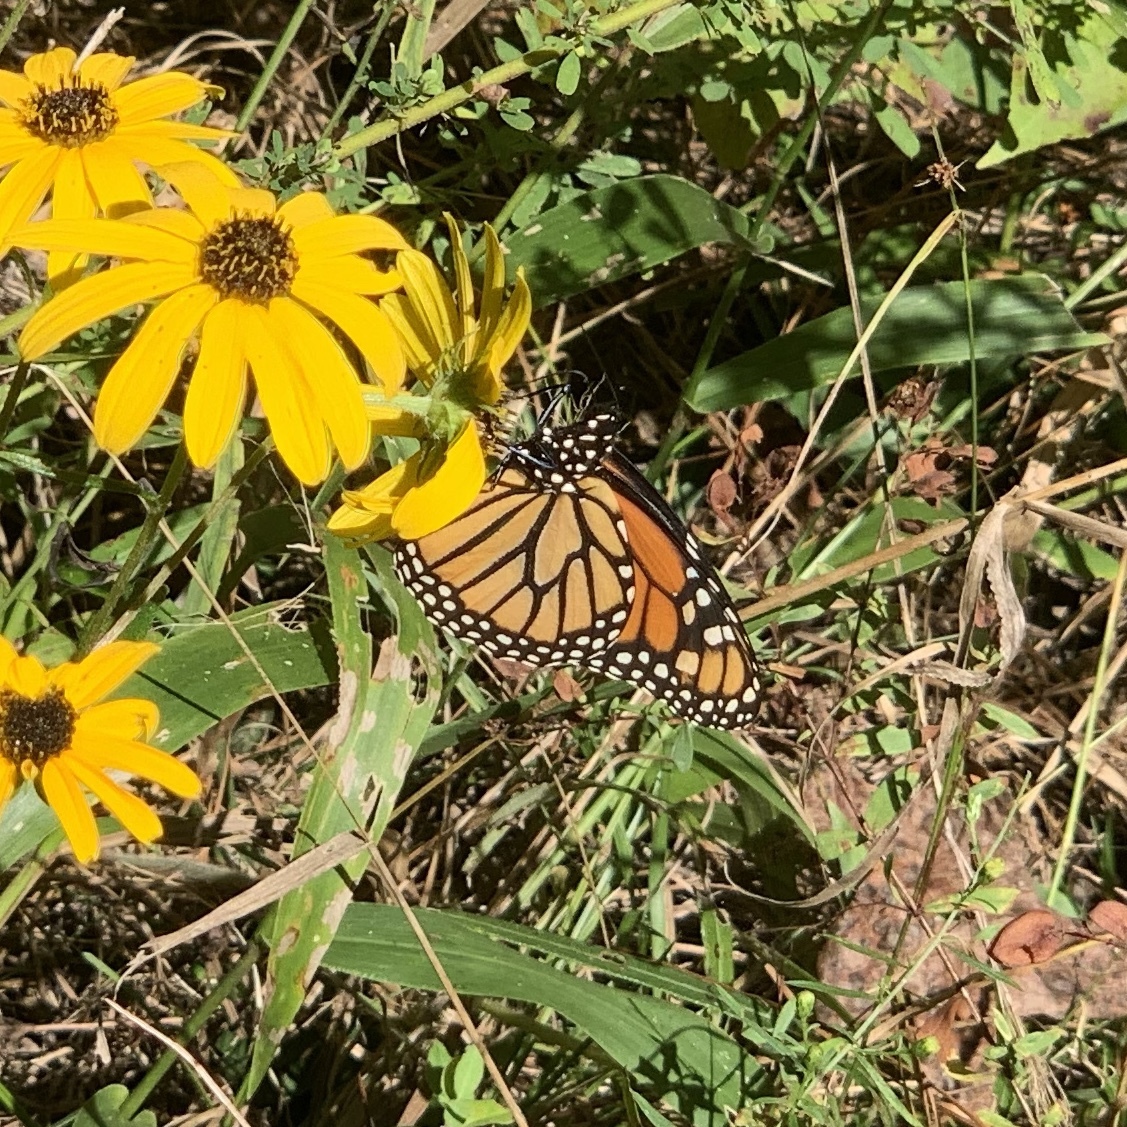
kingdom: Animalia
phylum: Arthropoda
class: Insecta
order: Lepidoptera
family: Nymphalidae
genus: Danaus
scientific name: Danaus plexippus
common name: Monarch
